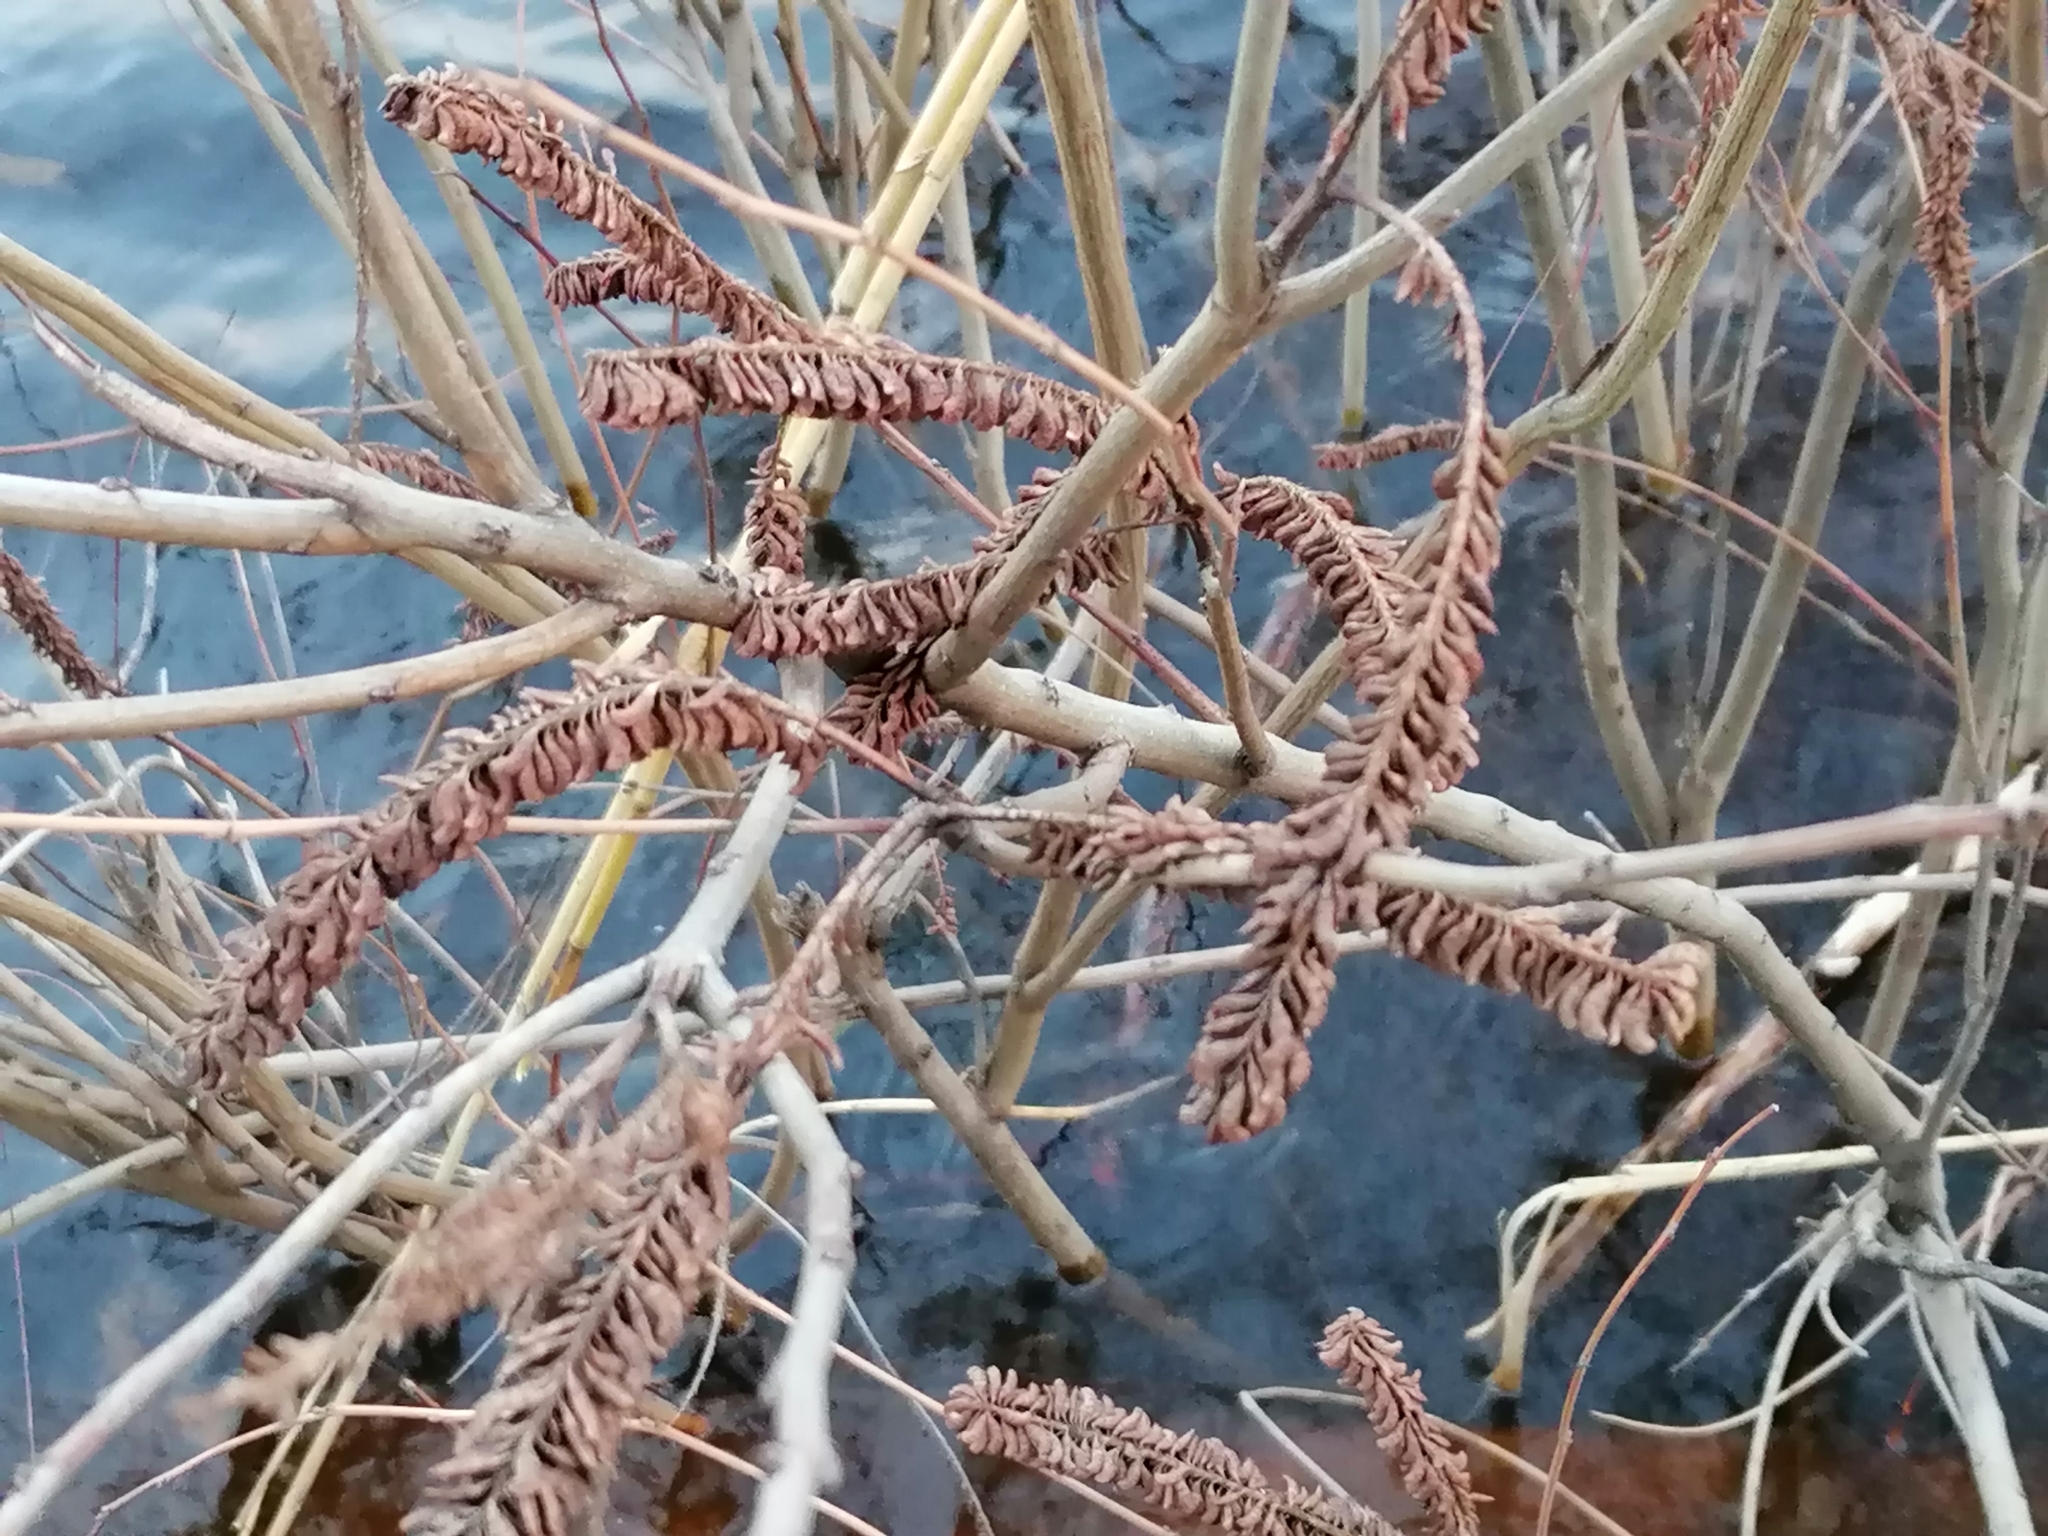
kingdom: Plantae
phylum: Tracheophyta
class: Magnoliopsida
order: Fabales
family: Fabaceae
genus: Amorpha
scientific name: Amorpha fruticosa
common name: False indigo
